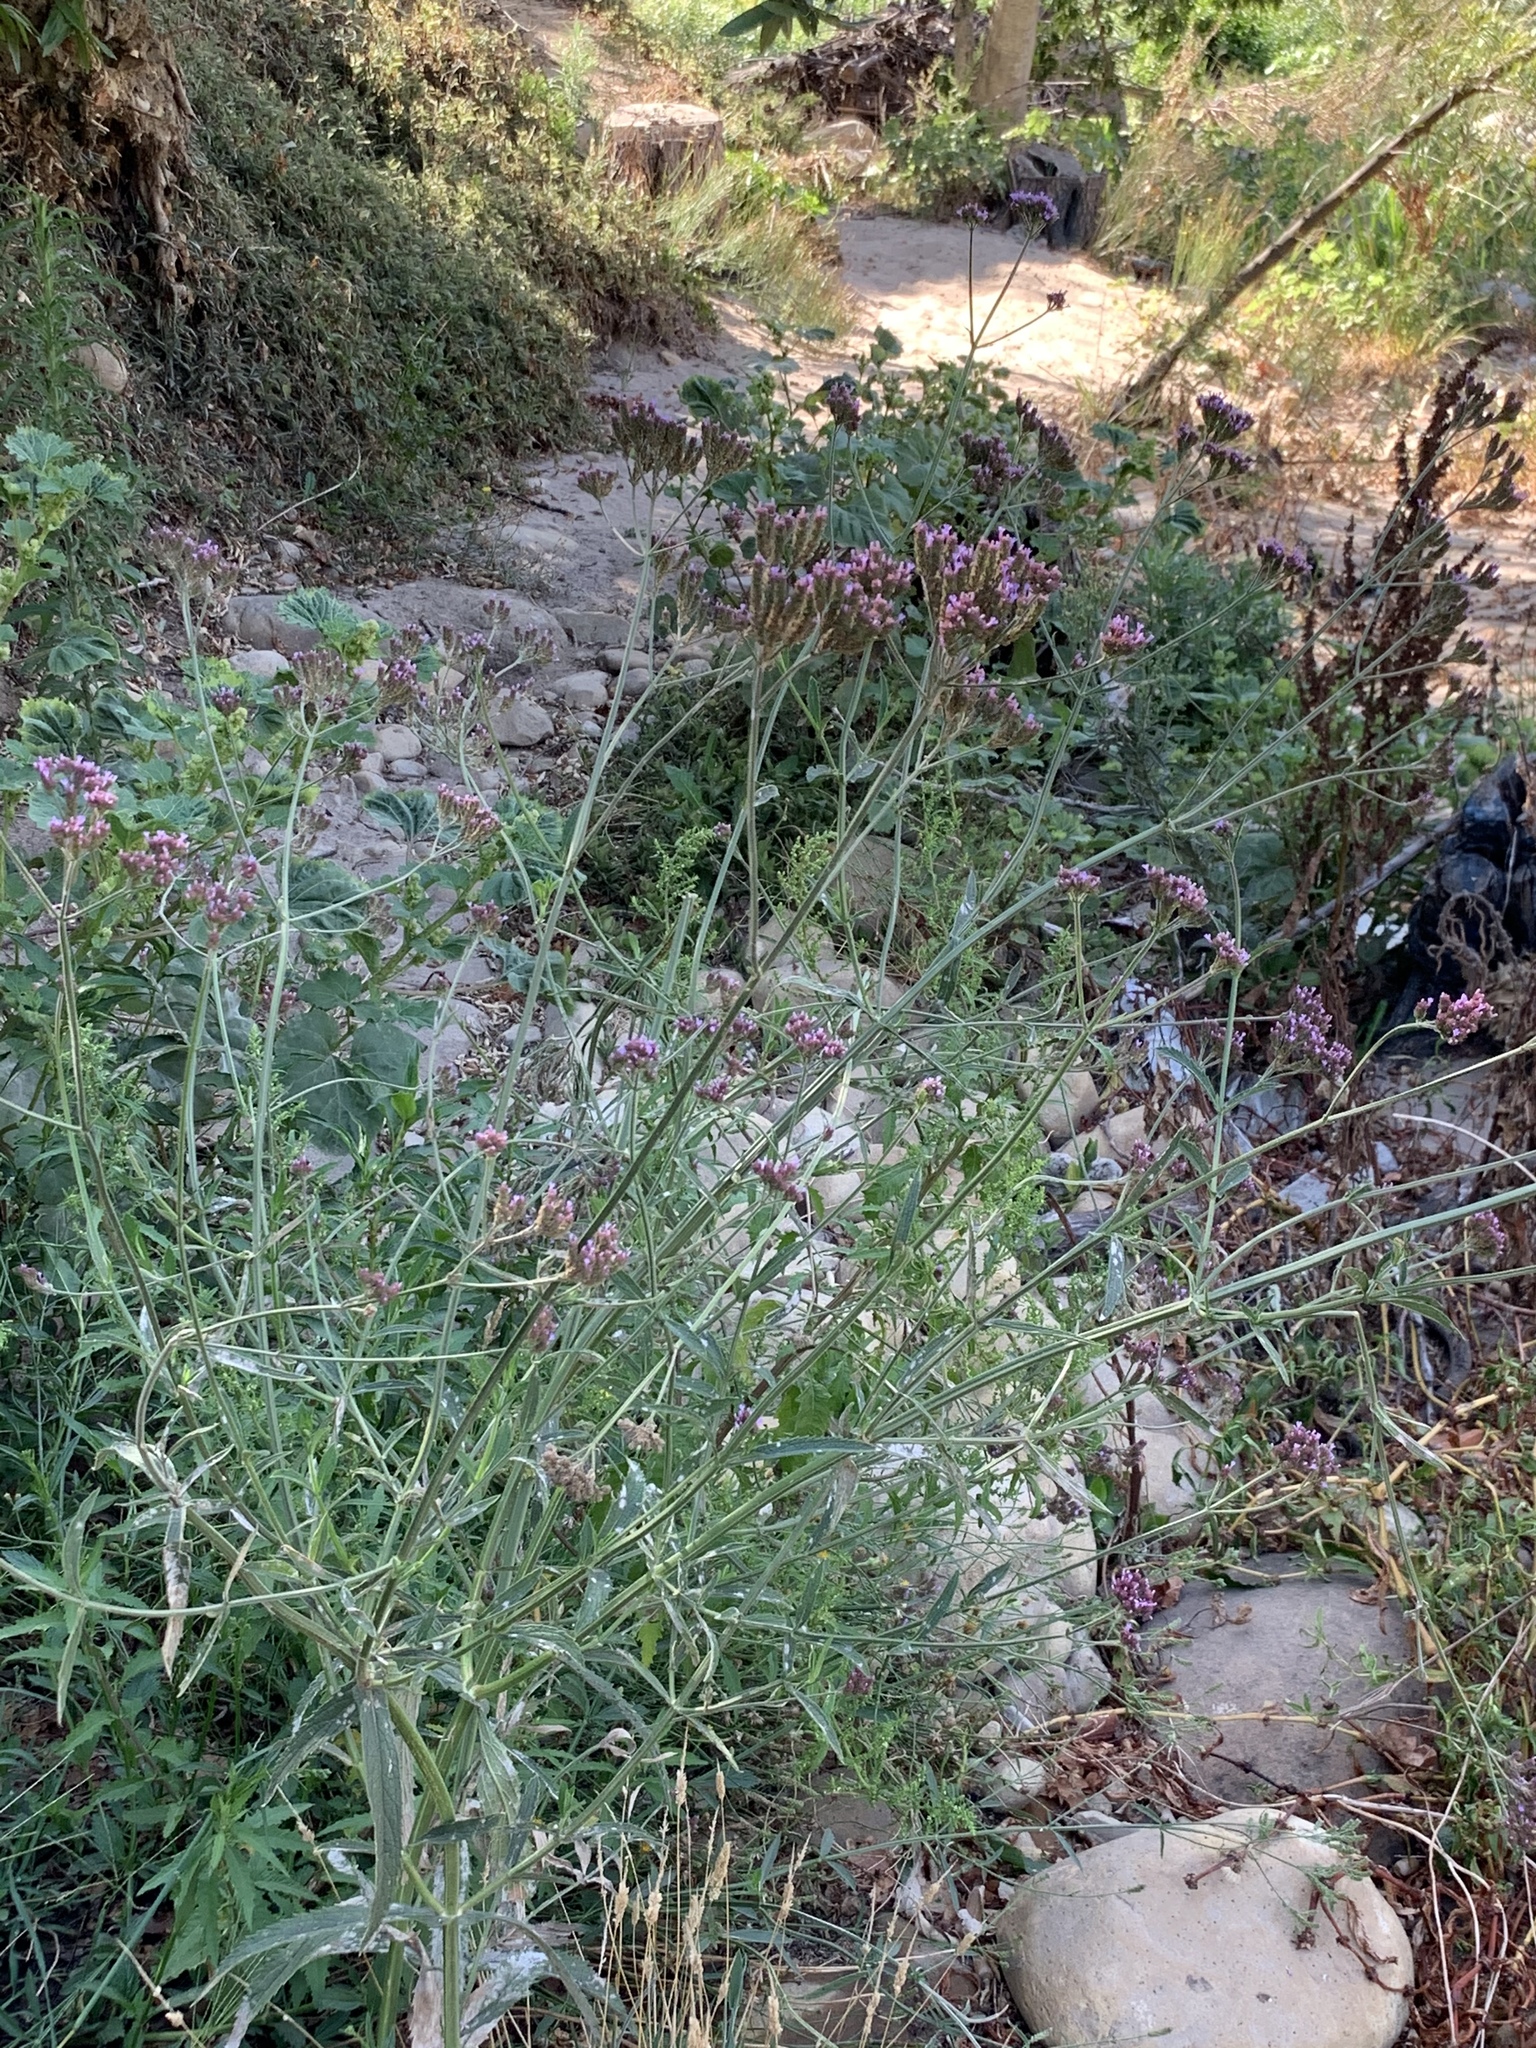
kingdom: Plantae
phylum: Tracheophyta
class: Magnoliopsida
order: Lamiales
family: Verbenaceae
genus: Verbena
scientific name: Verbena bonariensis
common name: Purpletop vervain
